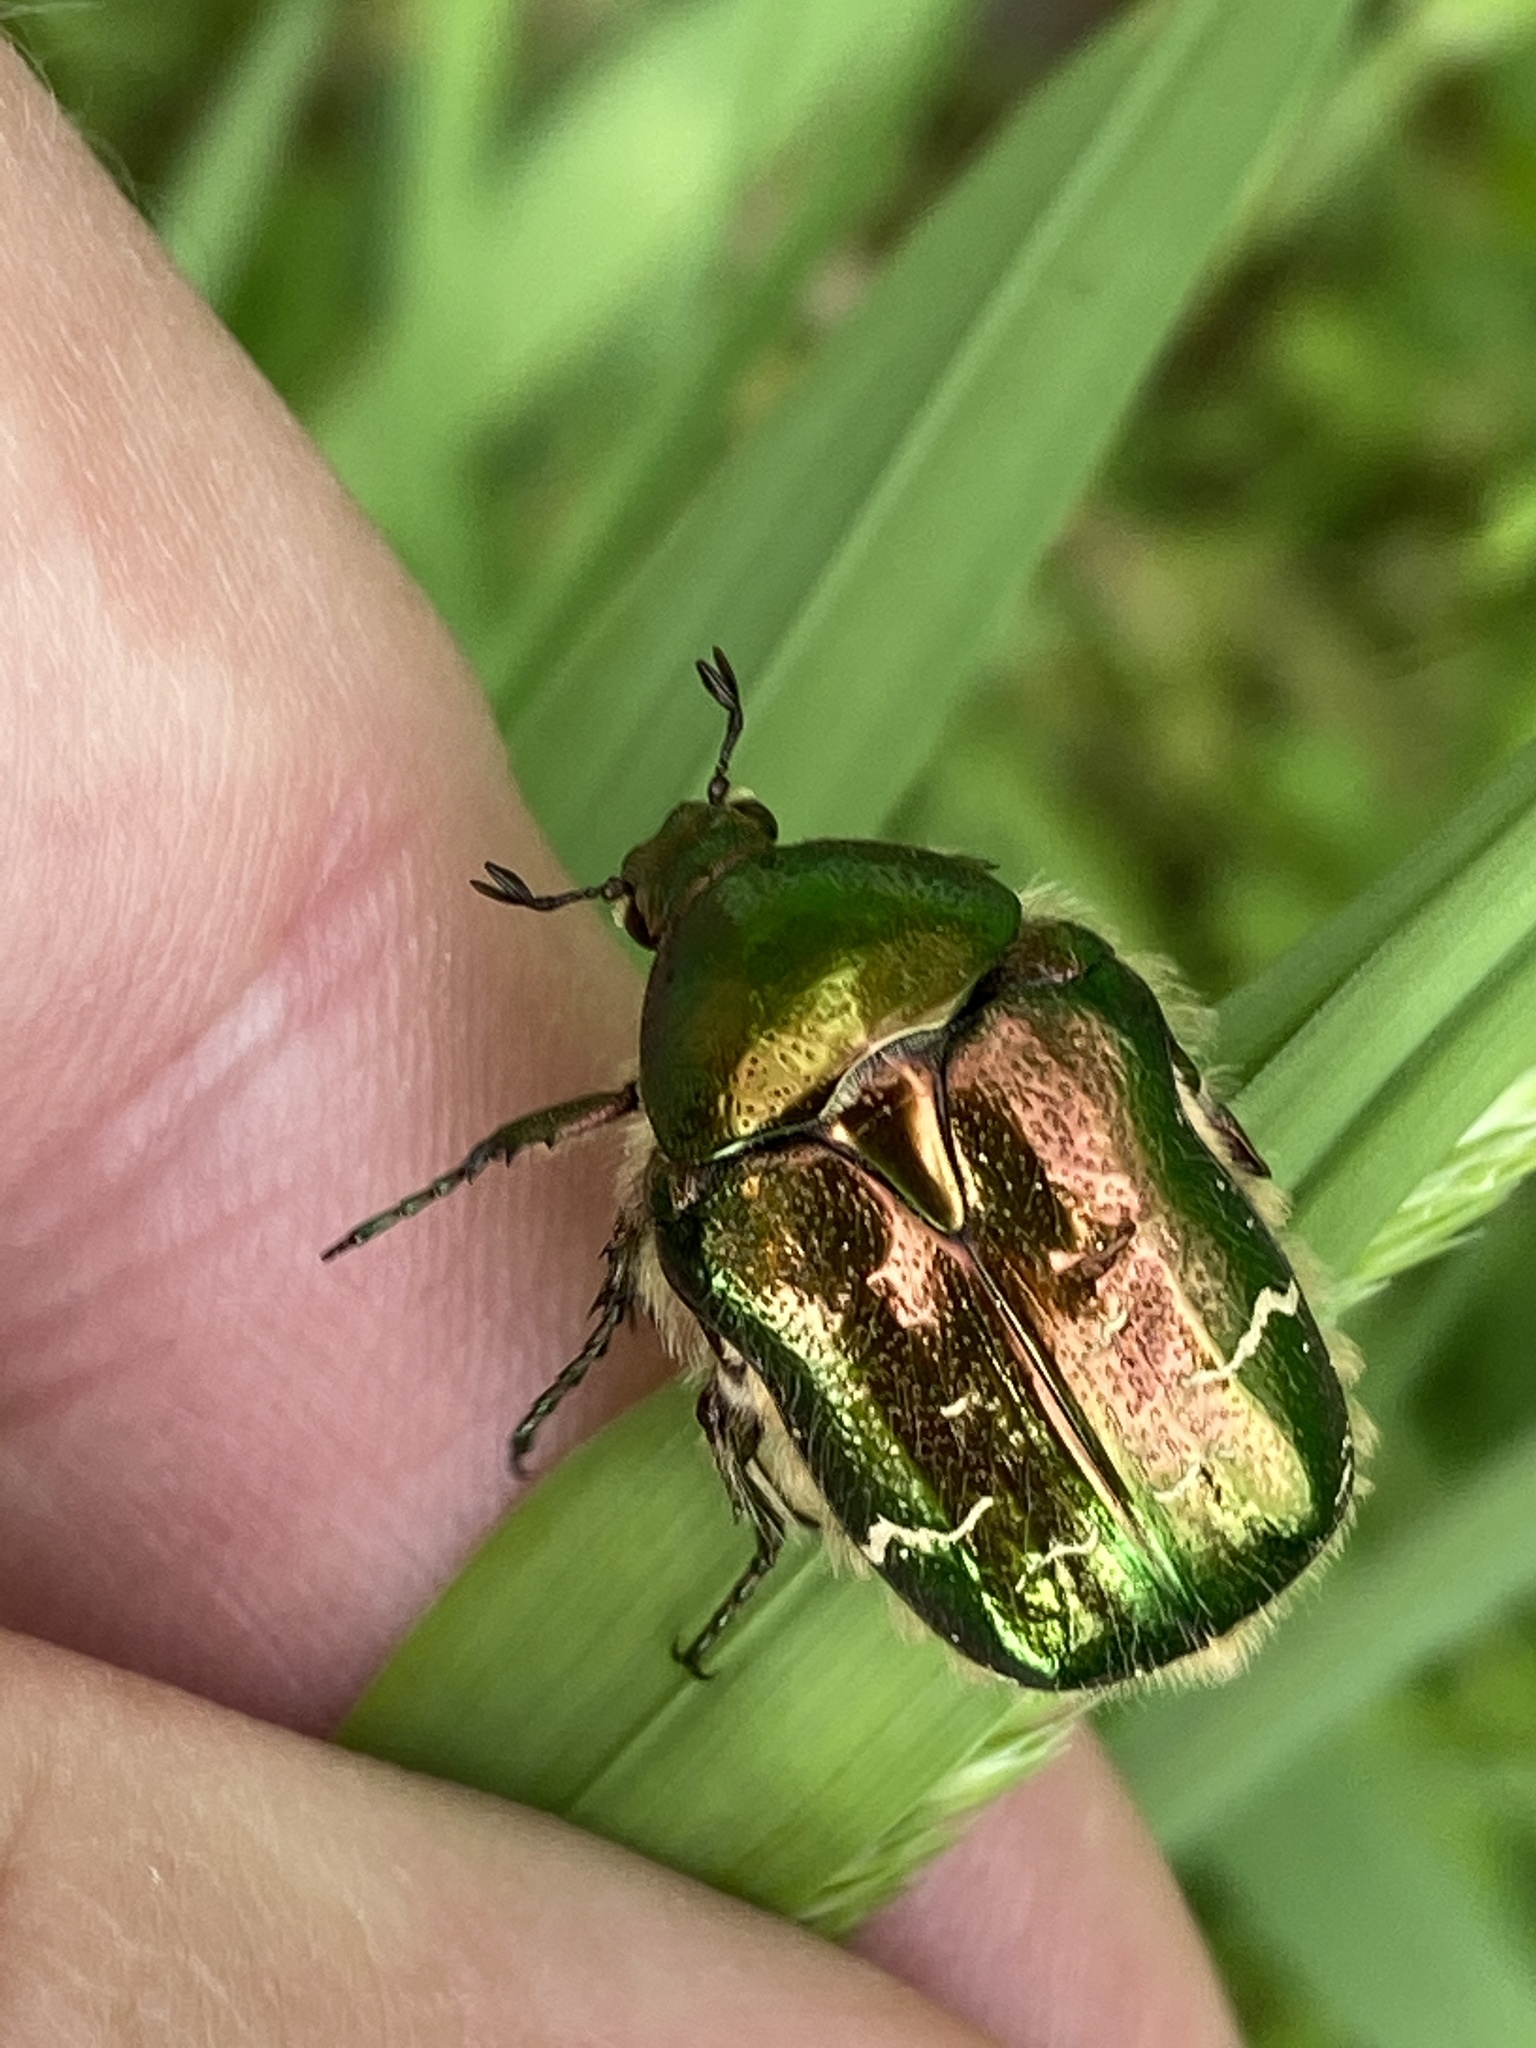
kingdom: Animalia
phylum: Arthropoda
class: Insecta
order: Coleoptera
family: Scarabaeidae
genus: Cetonia
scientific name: Cetonia aurata
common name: Rose chafer
